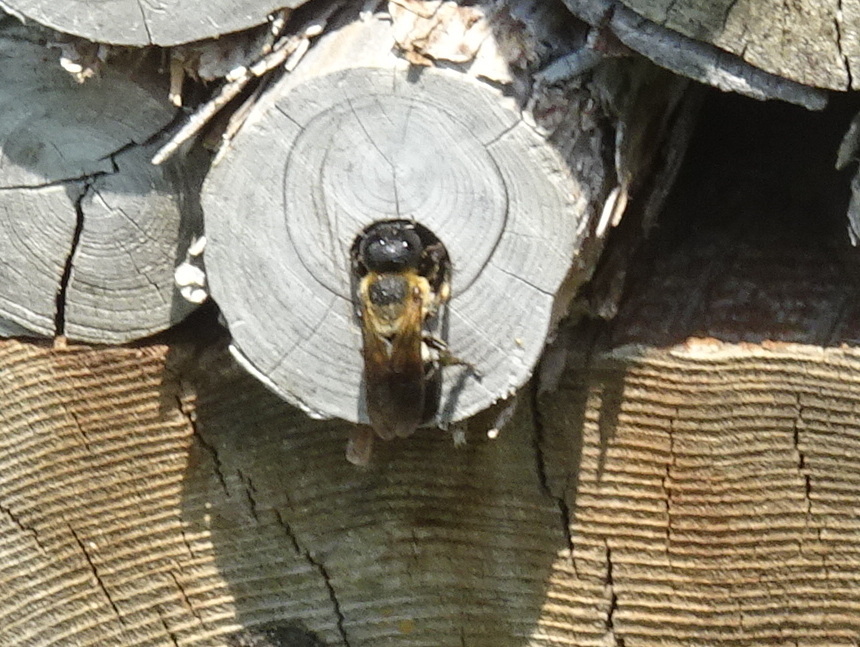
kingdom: Animalia
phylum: Arthropoda
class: Insecta
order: Hymenoptera
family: Megachilidae
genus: Megachile
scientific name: Megachile sculpturalis
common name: Sculptured resin bee
